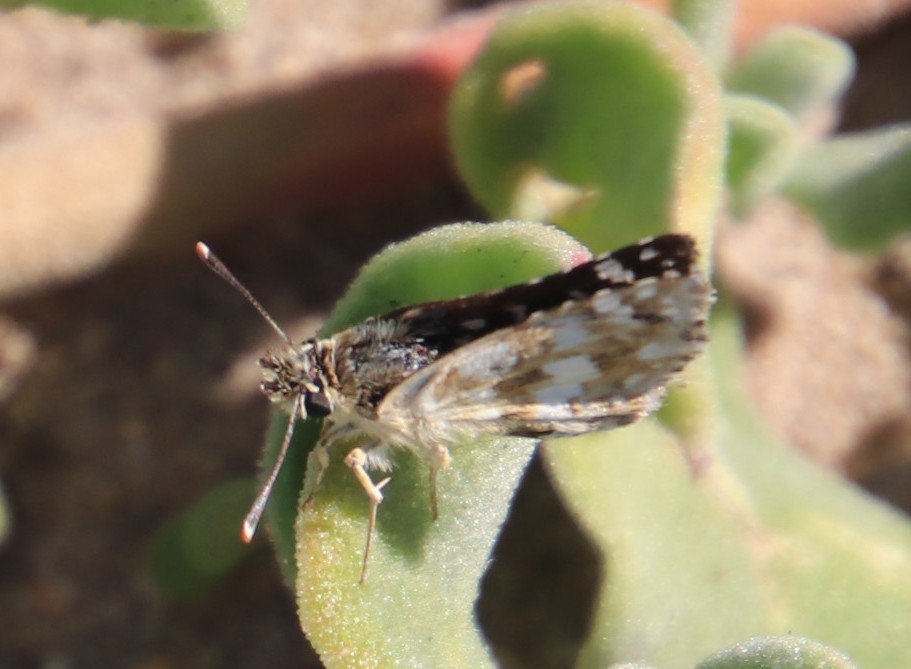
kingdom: Animalia
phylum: Arthropoda
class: Insecta
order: Lepidoptera
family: Hesperiidae
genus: Spialia
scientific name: Spialia spio
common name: Mountain sandman
